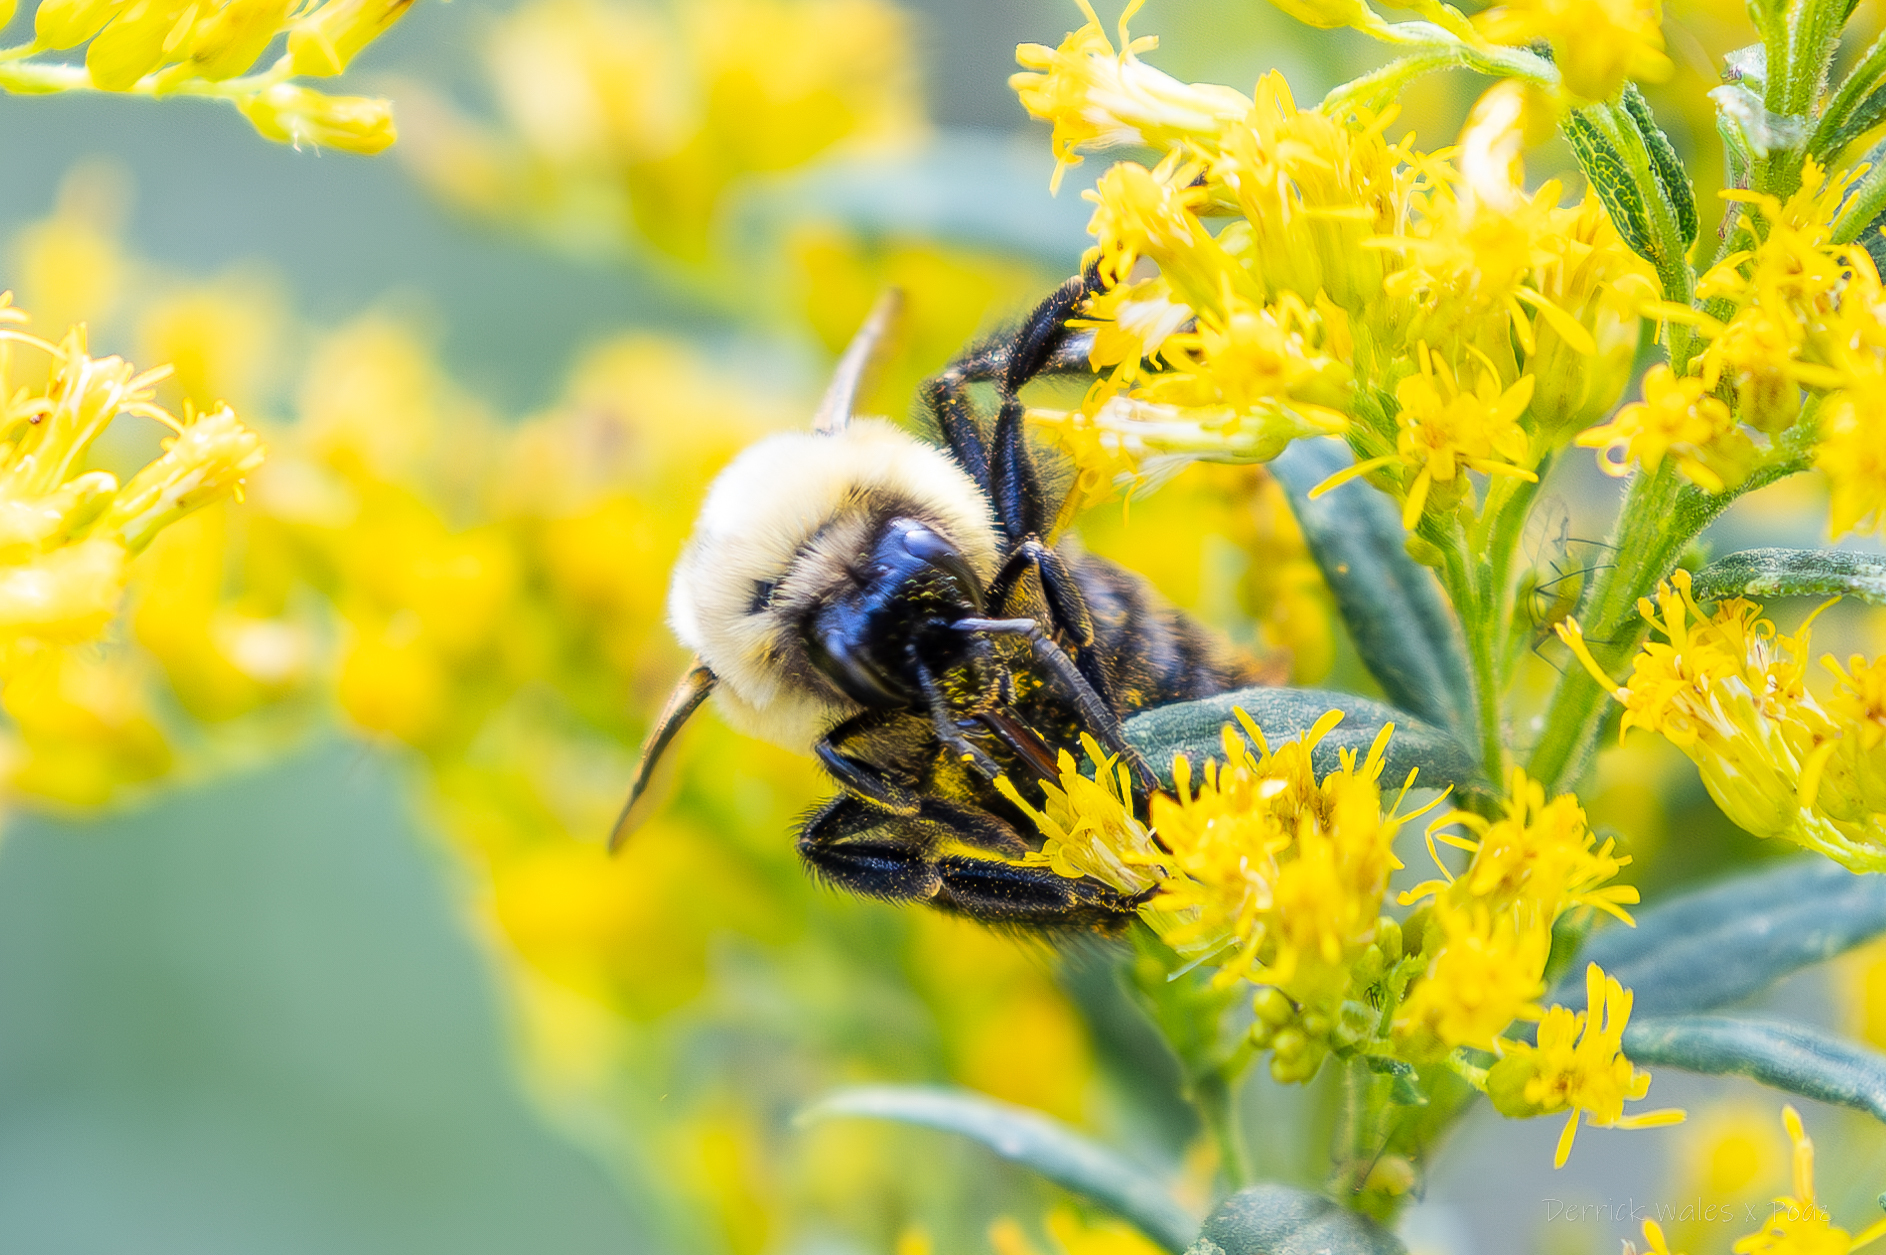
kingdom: Animalia
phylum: Arthropoda
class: Insecta
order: Hymenoptera
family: Apidae
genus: Bombus
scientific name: Bombus impatiens
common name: Common eastern bumble bee
